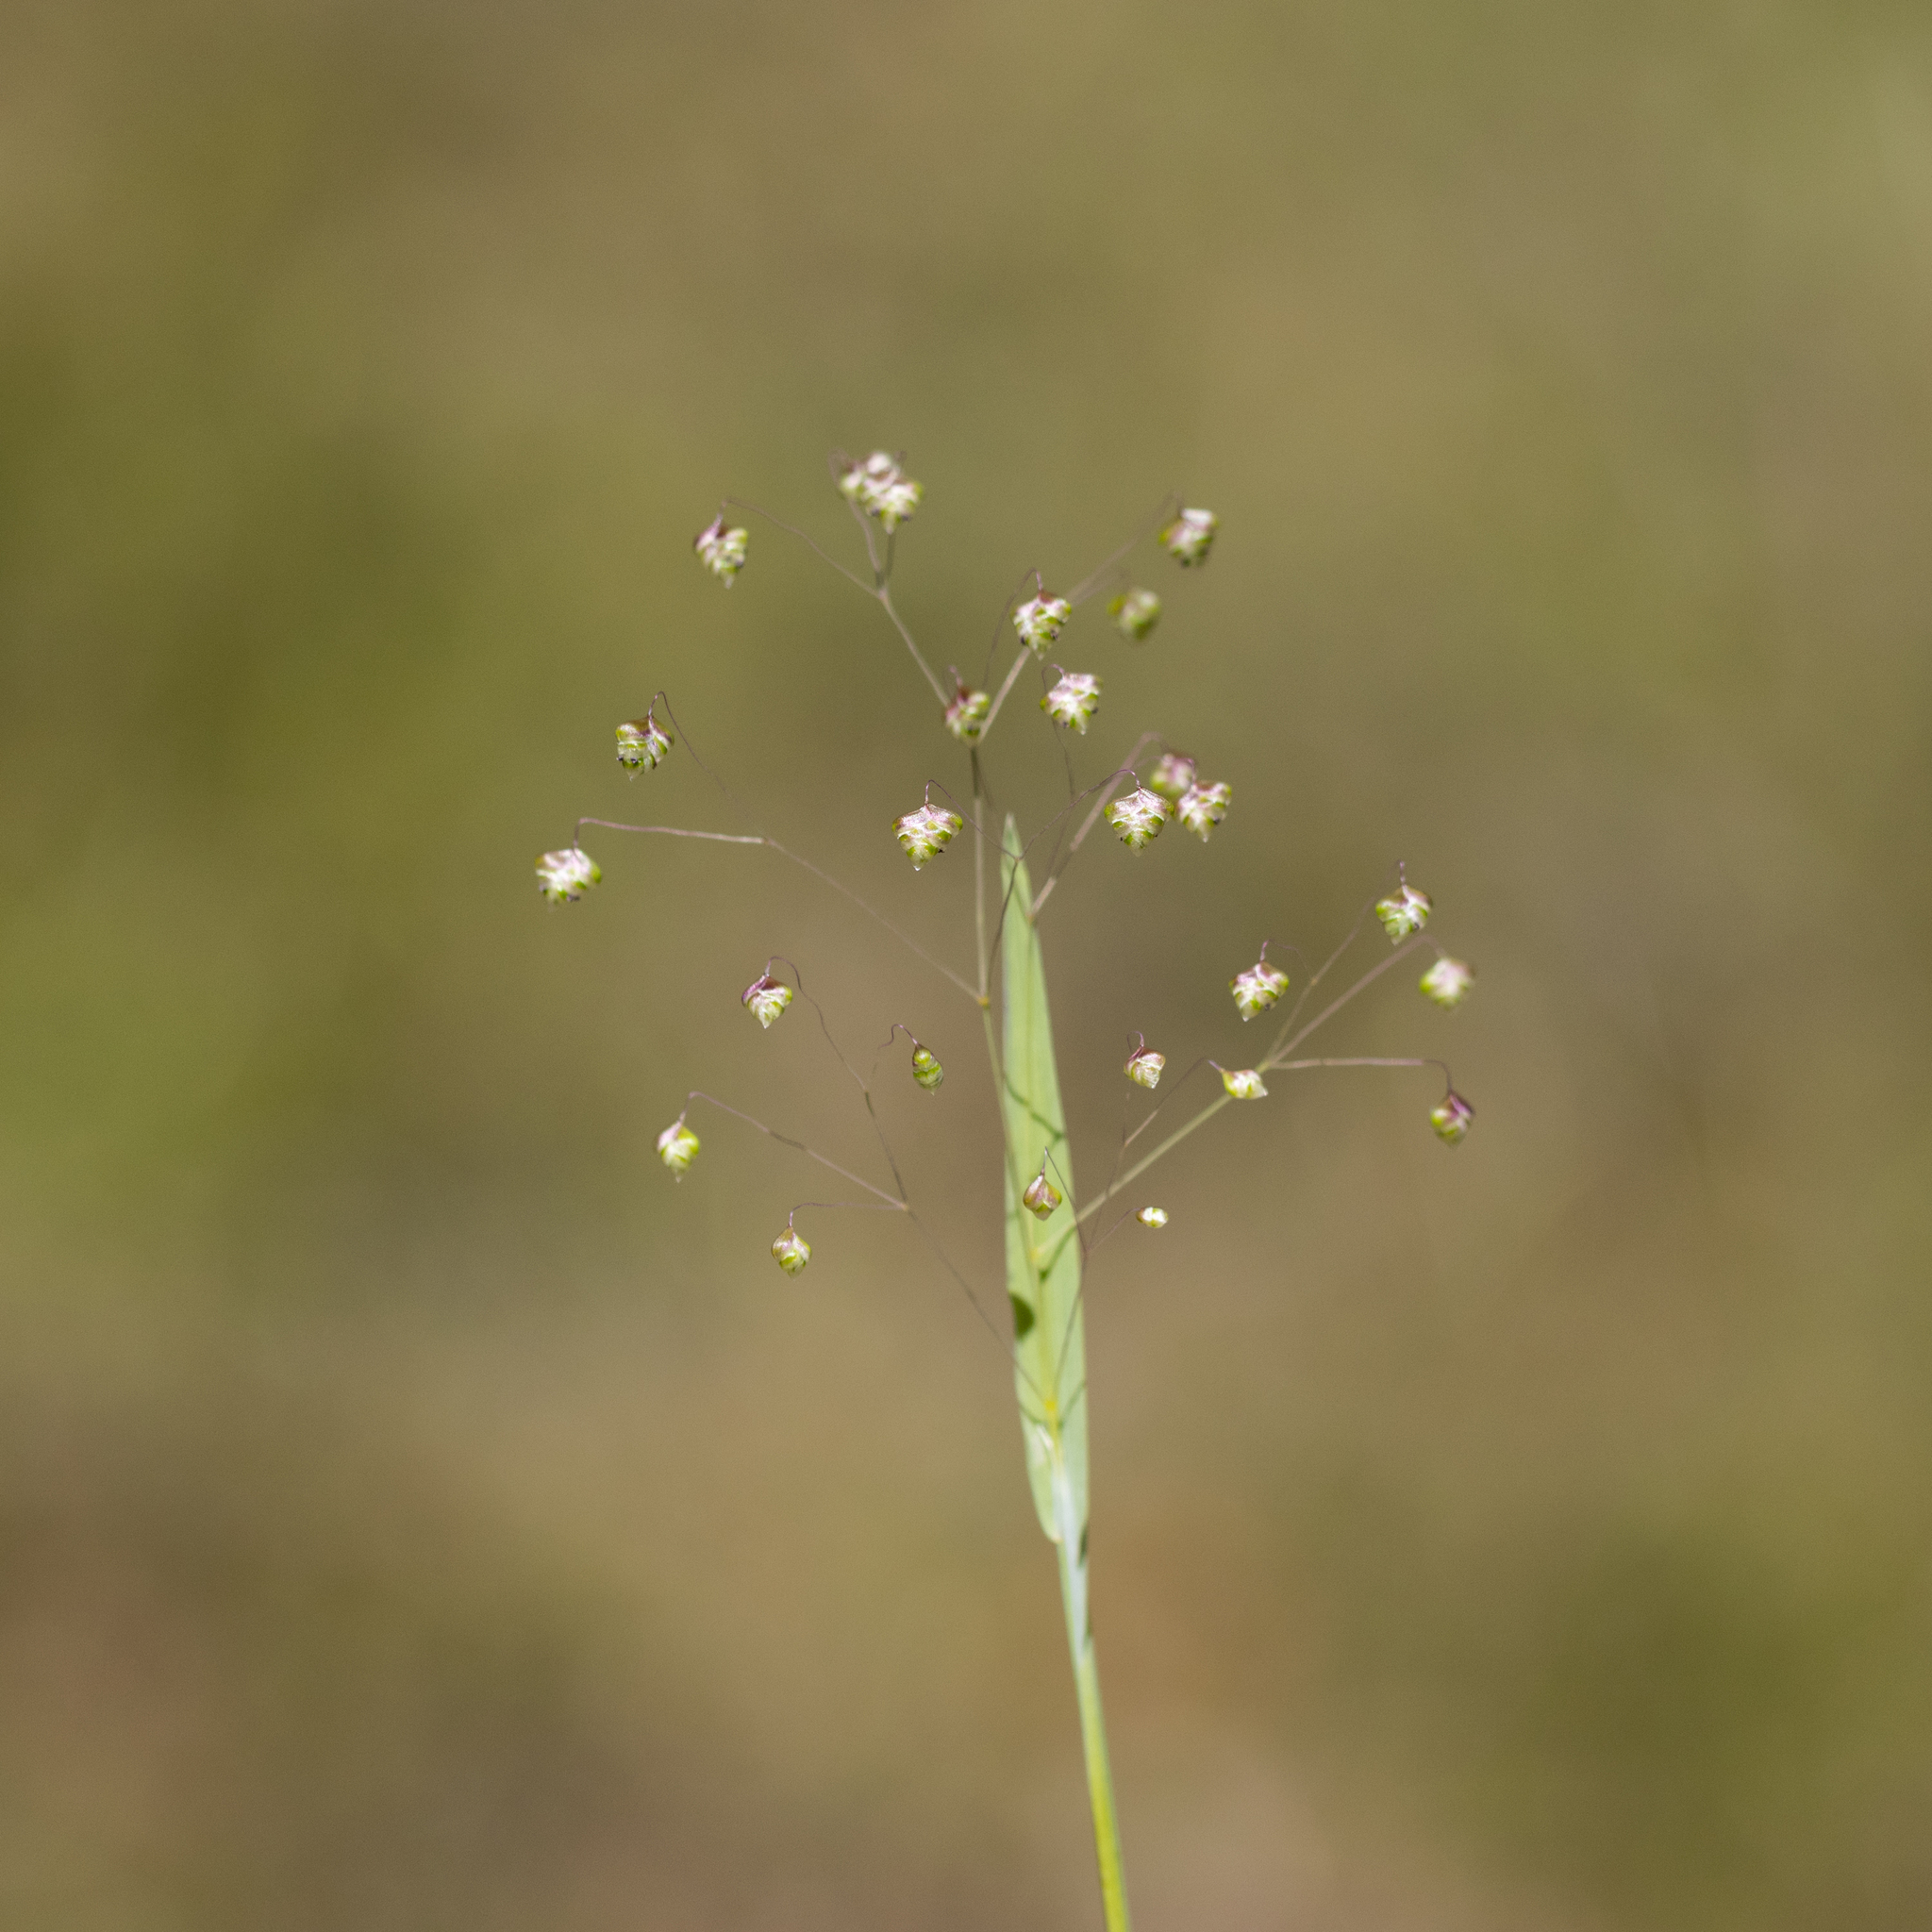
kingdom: Plantae
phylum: Tracheophyta
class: Liliopsida
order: Poales
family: Poaceae
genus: Briza
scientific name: Briza minor
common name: Lesser quaking-grass
